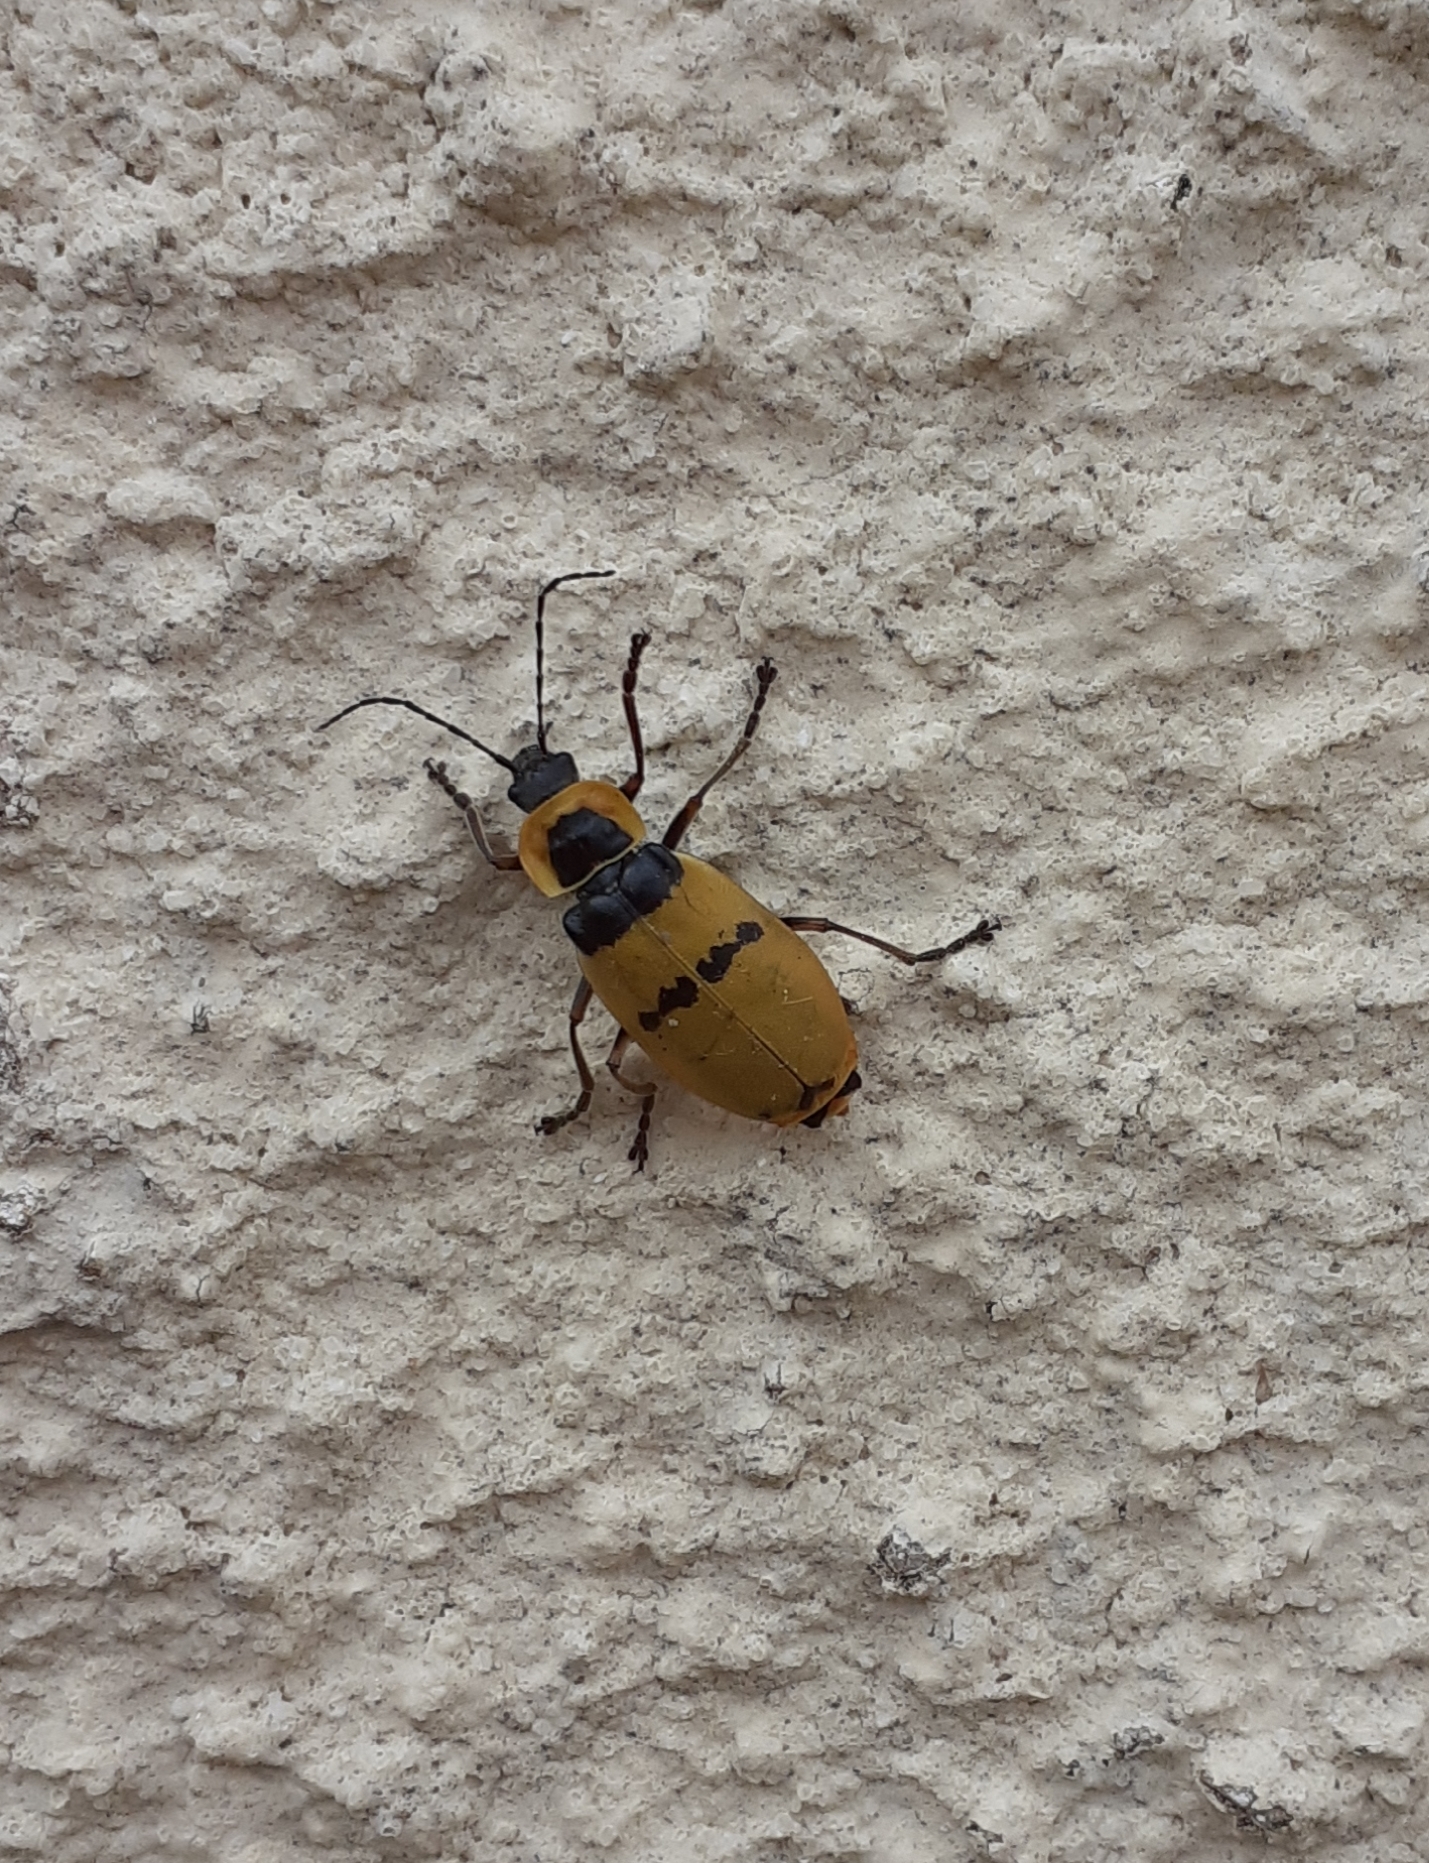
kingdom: Animalia
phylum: Arthropoda
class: Insecta
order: Coleoptera
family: Cantharidae
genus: Chauliognathus
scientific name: Chauliognathus
